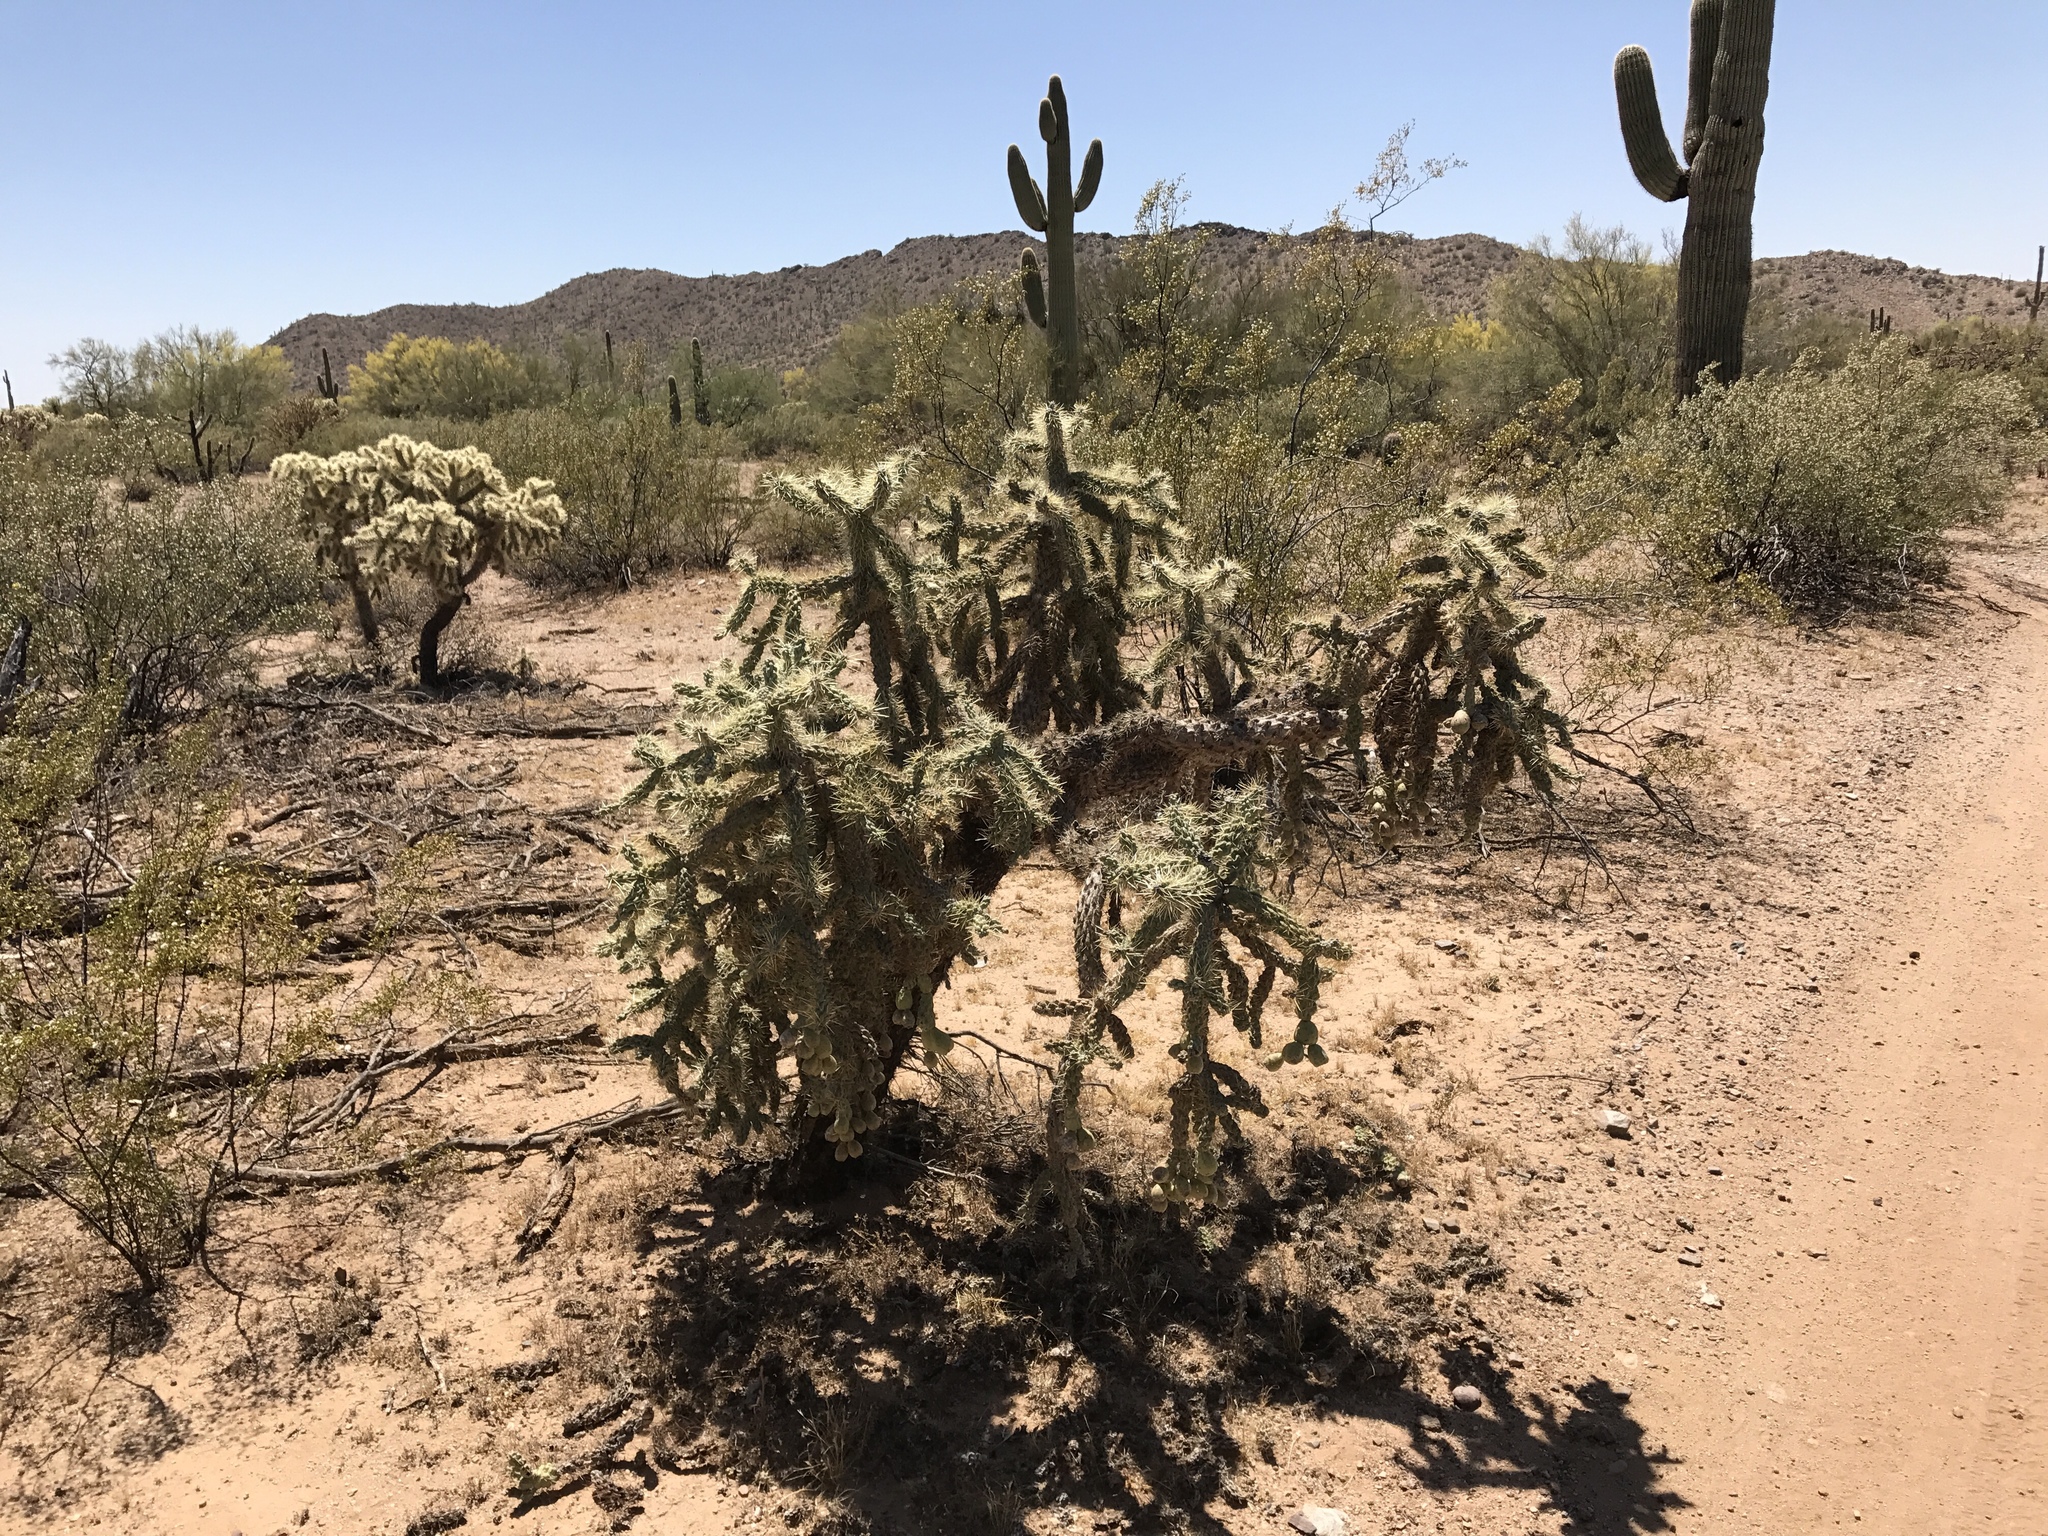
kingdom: Plantae
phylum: Tracheophyta
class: Magnoliopsida
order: Caryophyllales
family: Cactaceae
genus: Cylindropuntia
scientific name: Cylindropuntia fulgida
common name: Jumping cholla
